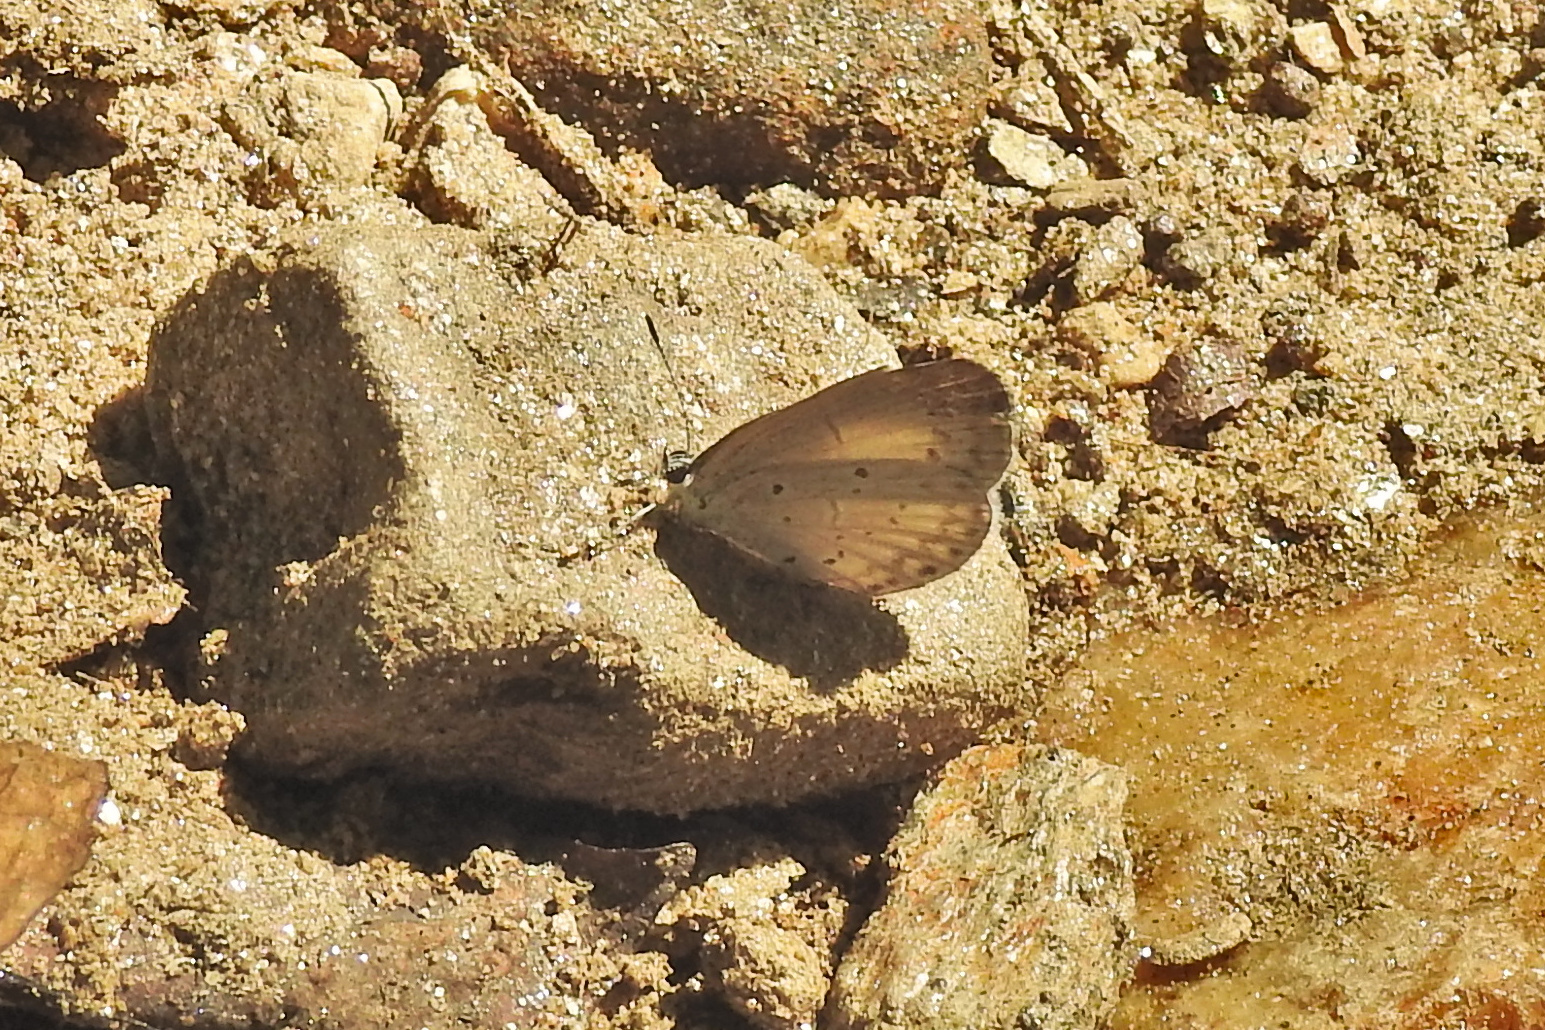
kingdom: Animalia
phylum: Arthropoda
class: Insecta
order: Lepidoptera
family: Lycaenidae
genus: Cyaniris
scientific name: Cyaniris neglecta
